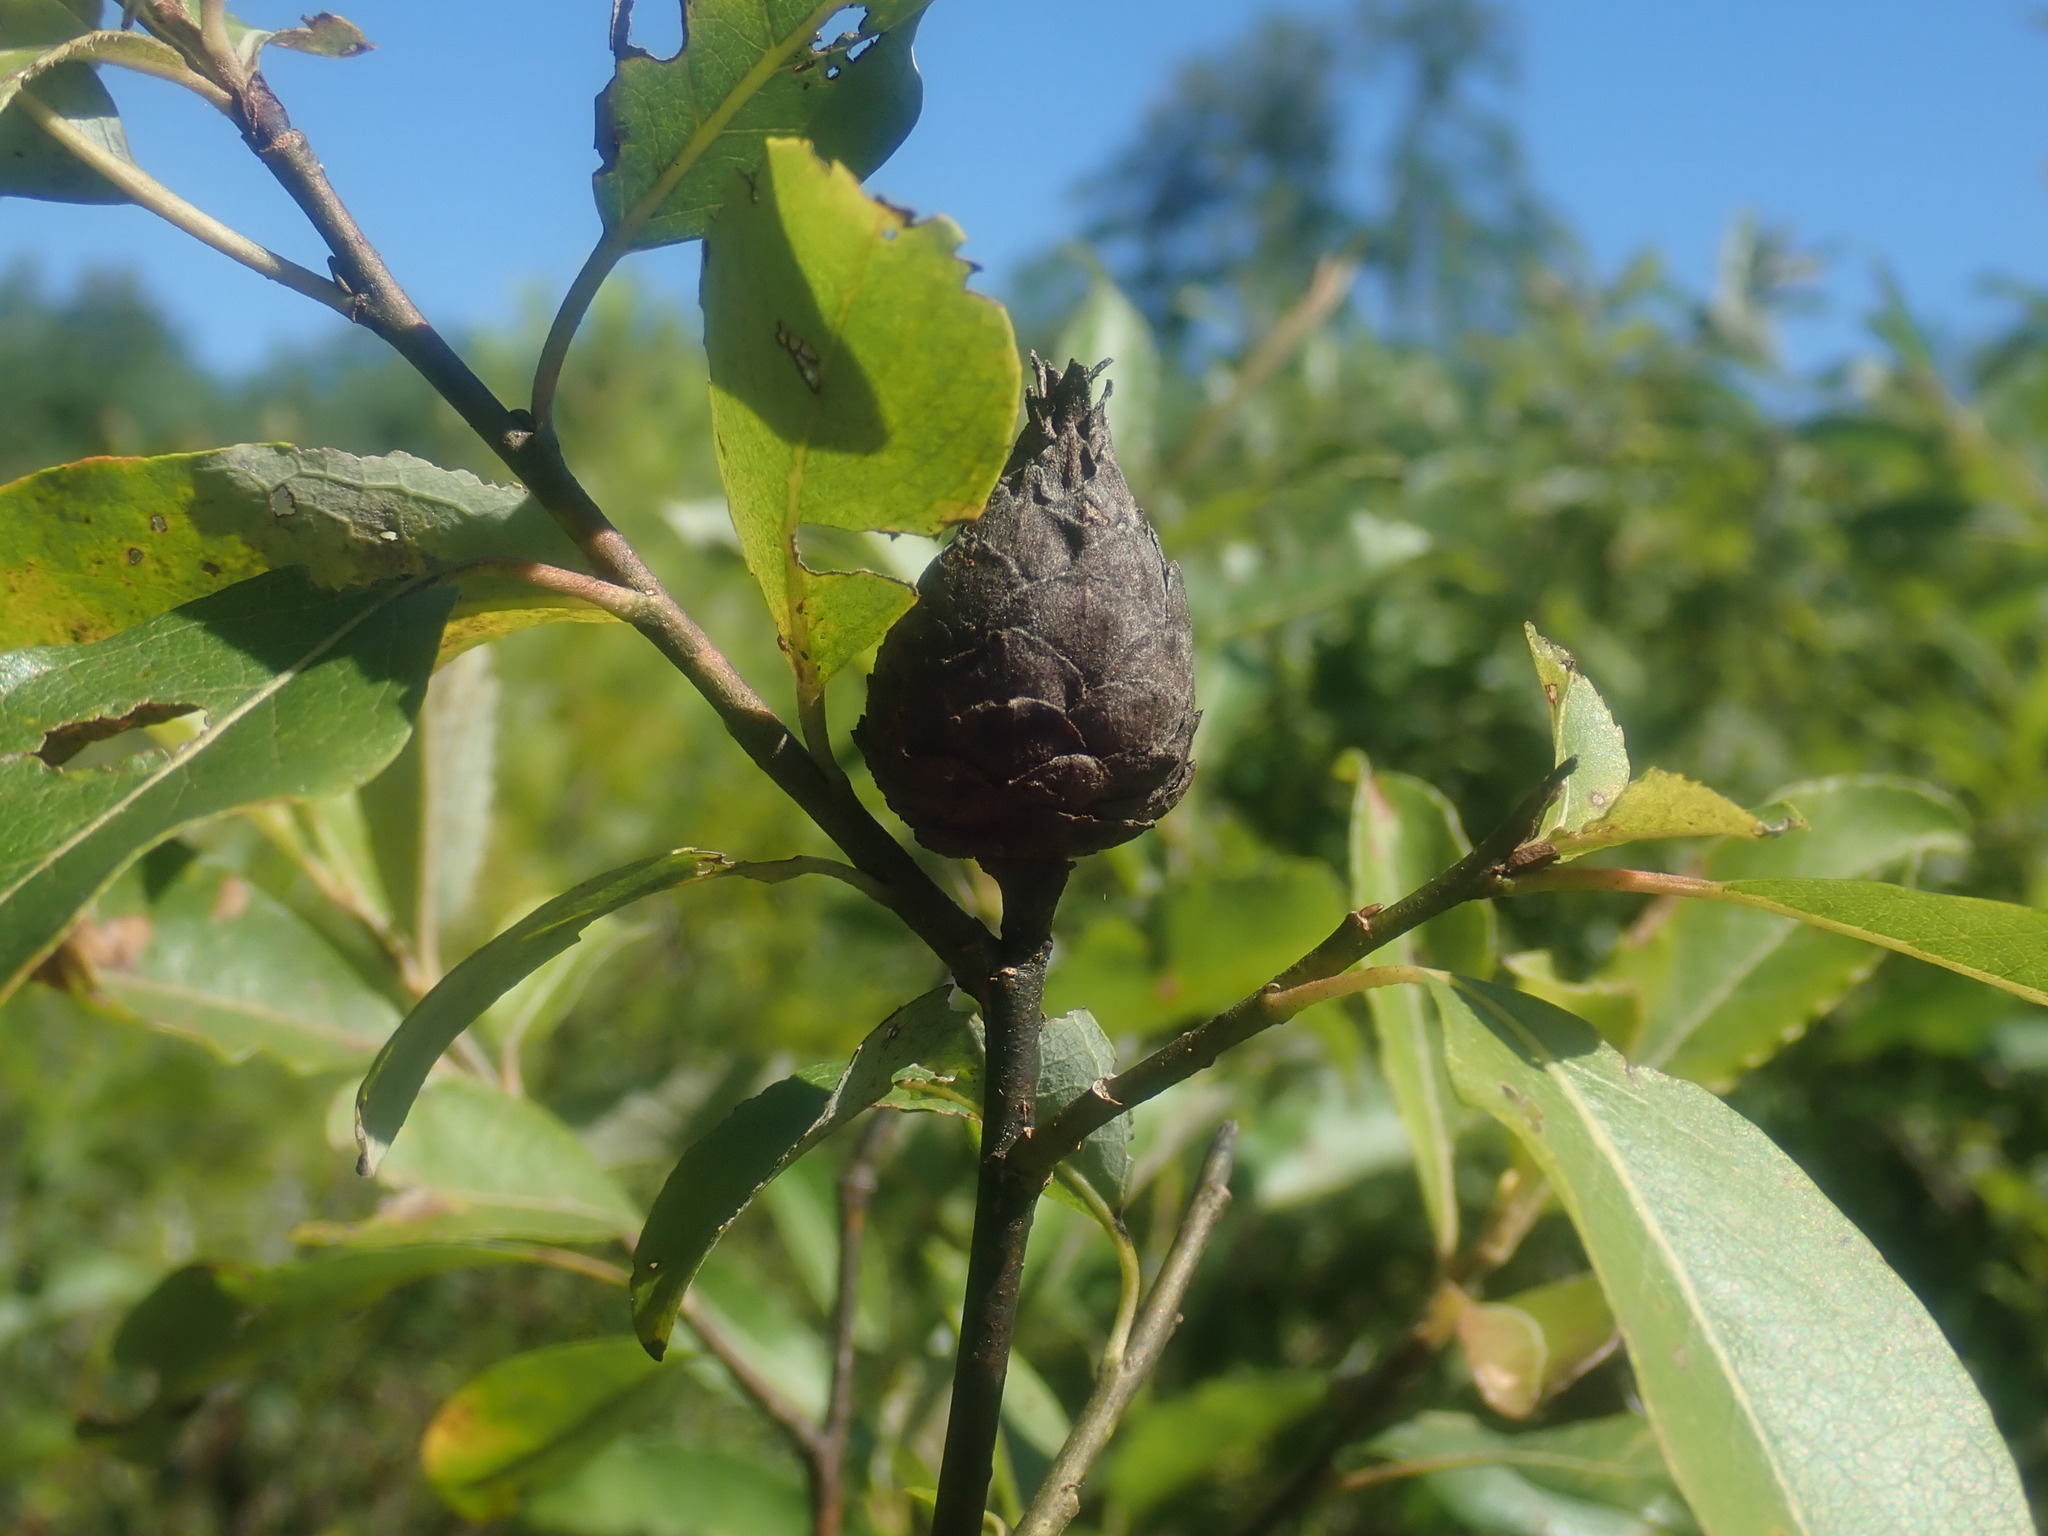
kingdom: Animalia
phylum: Arthropoda
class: Insecta
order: Diptera
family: Cecidomyiidae
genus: Rabdophaga
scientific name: Rabdophaga strobiloides
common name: Willow pinecone gall midge
